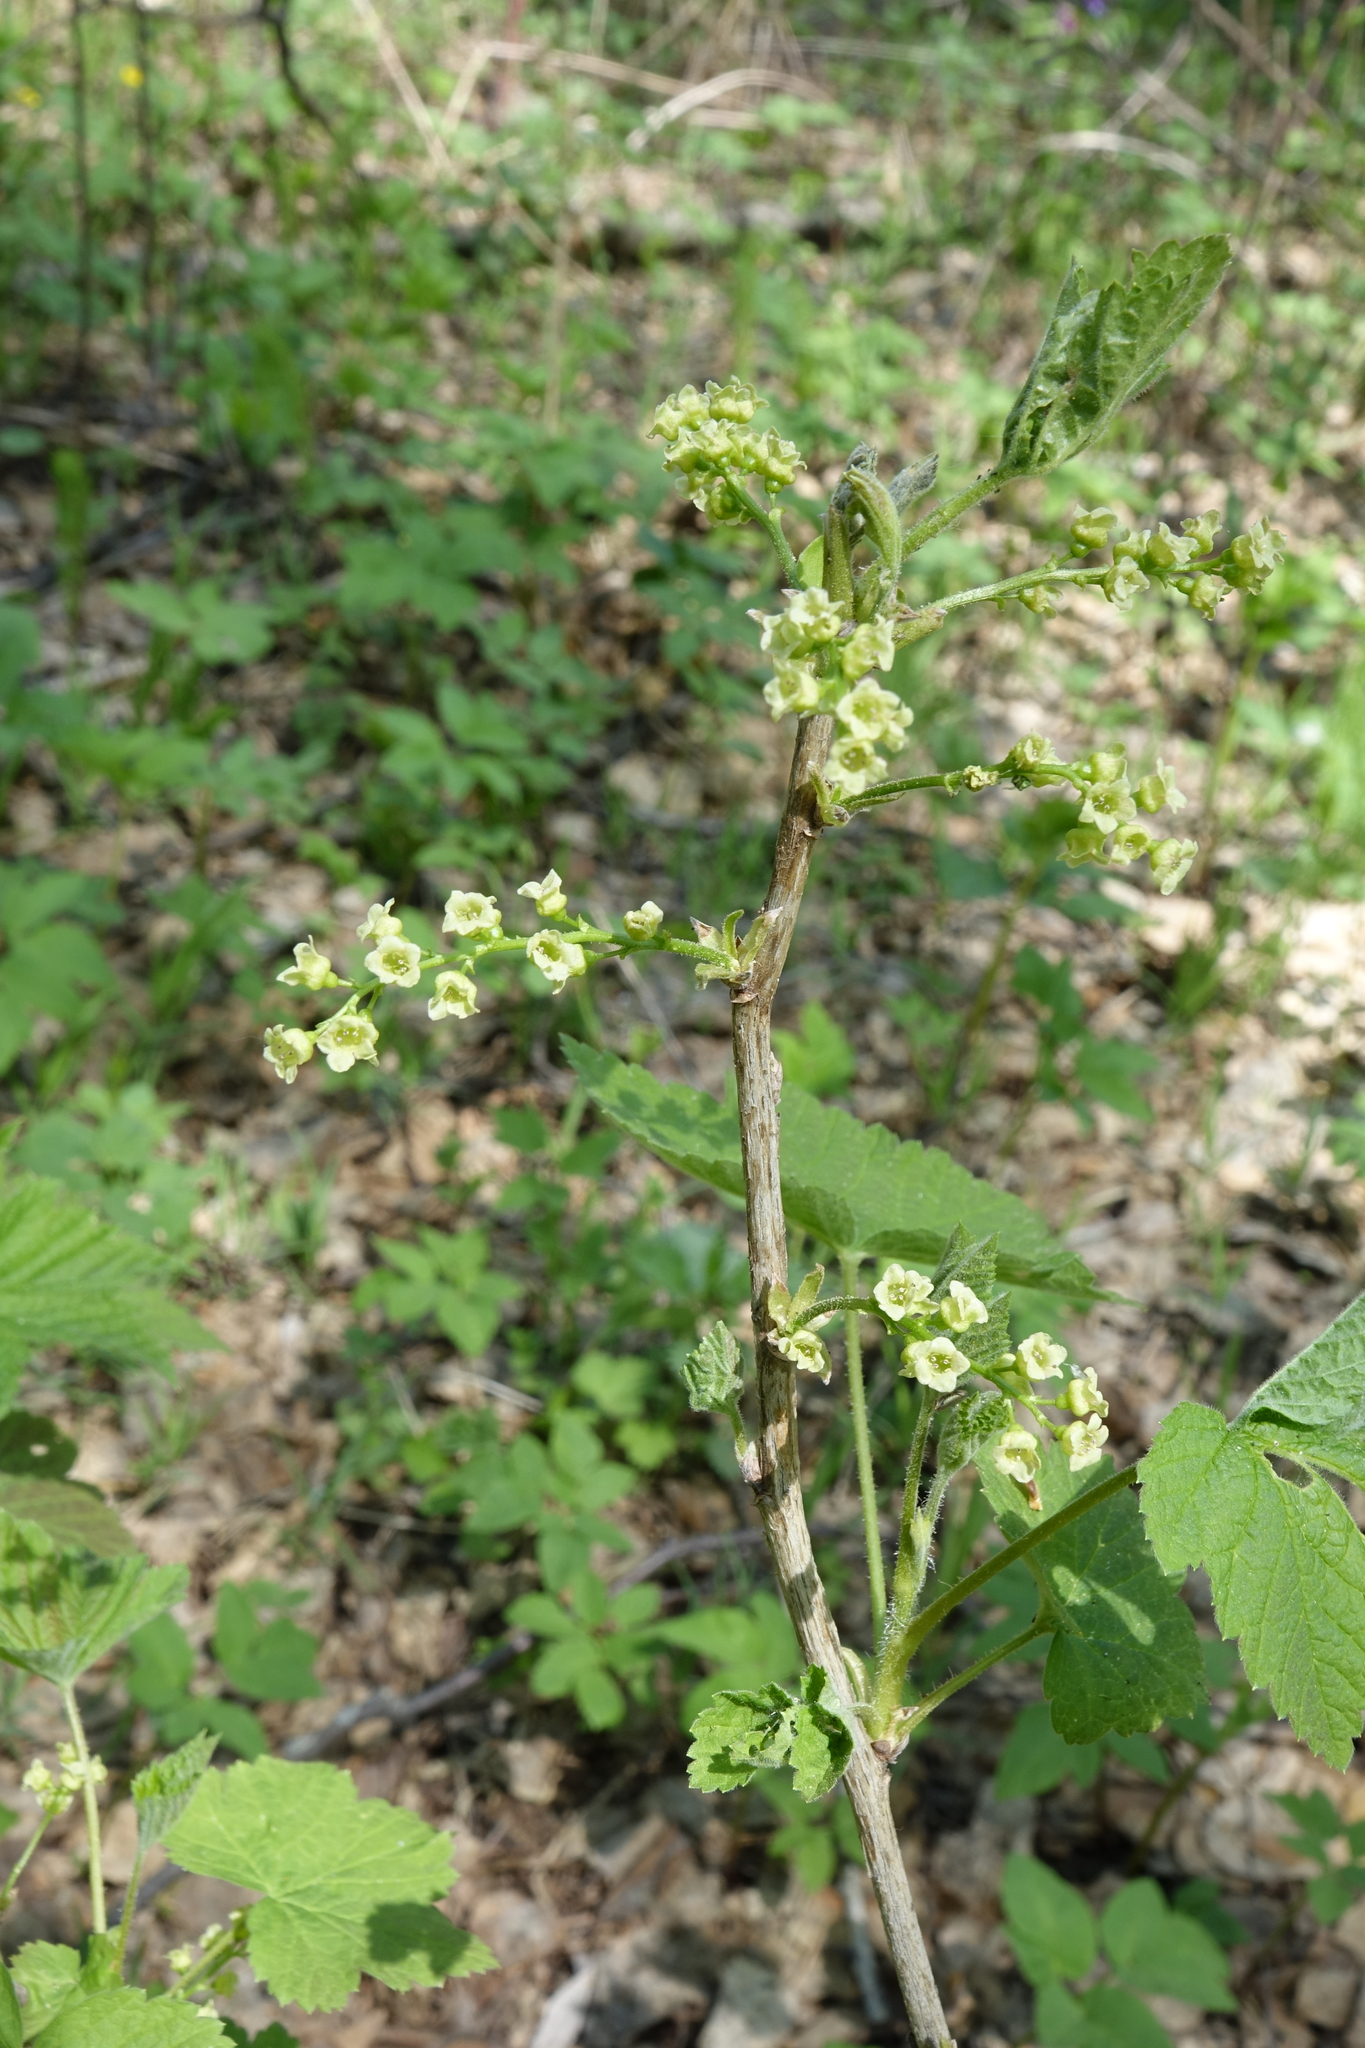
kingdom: Plantae
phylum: Tracheophyta
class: Magnoliopsida
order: Saxifragales
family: Grossulariaceae
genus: Ribes
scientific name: Ribes spicatum
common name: Downy currant
